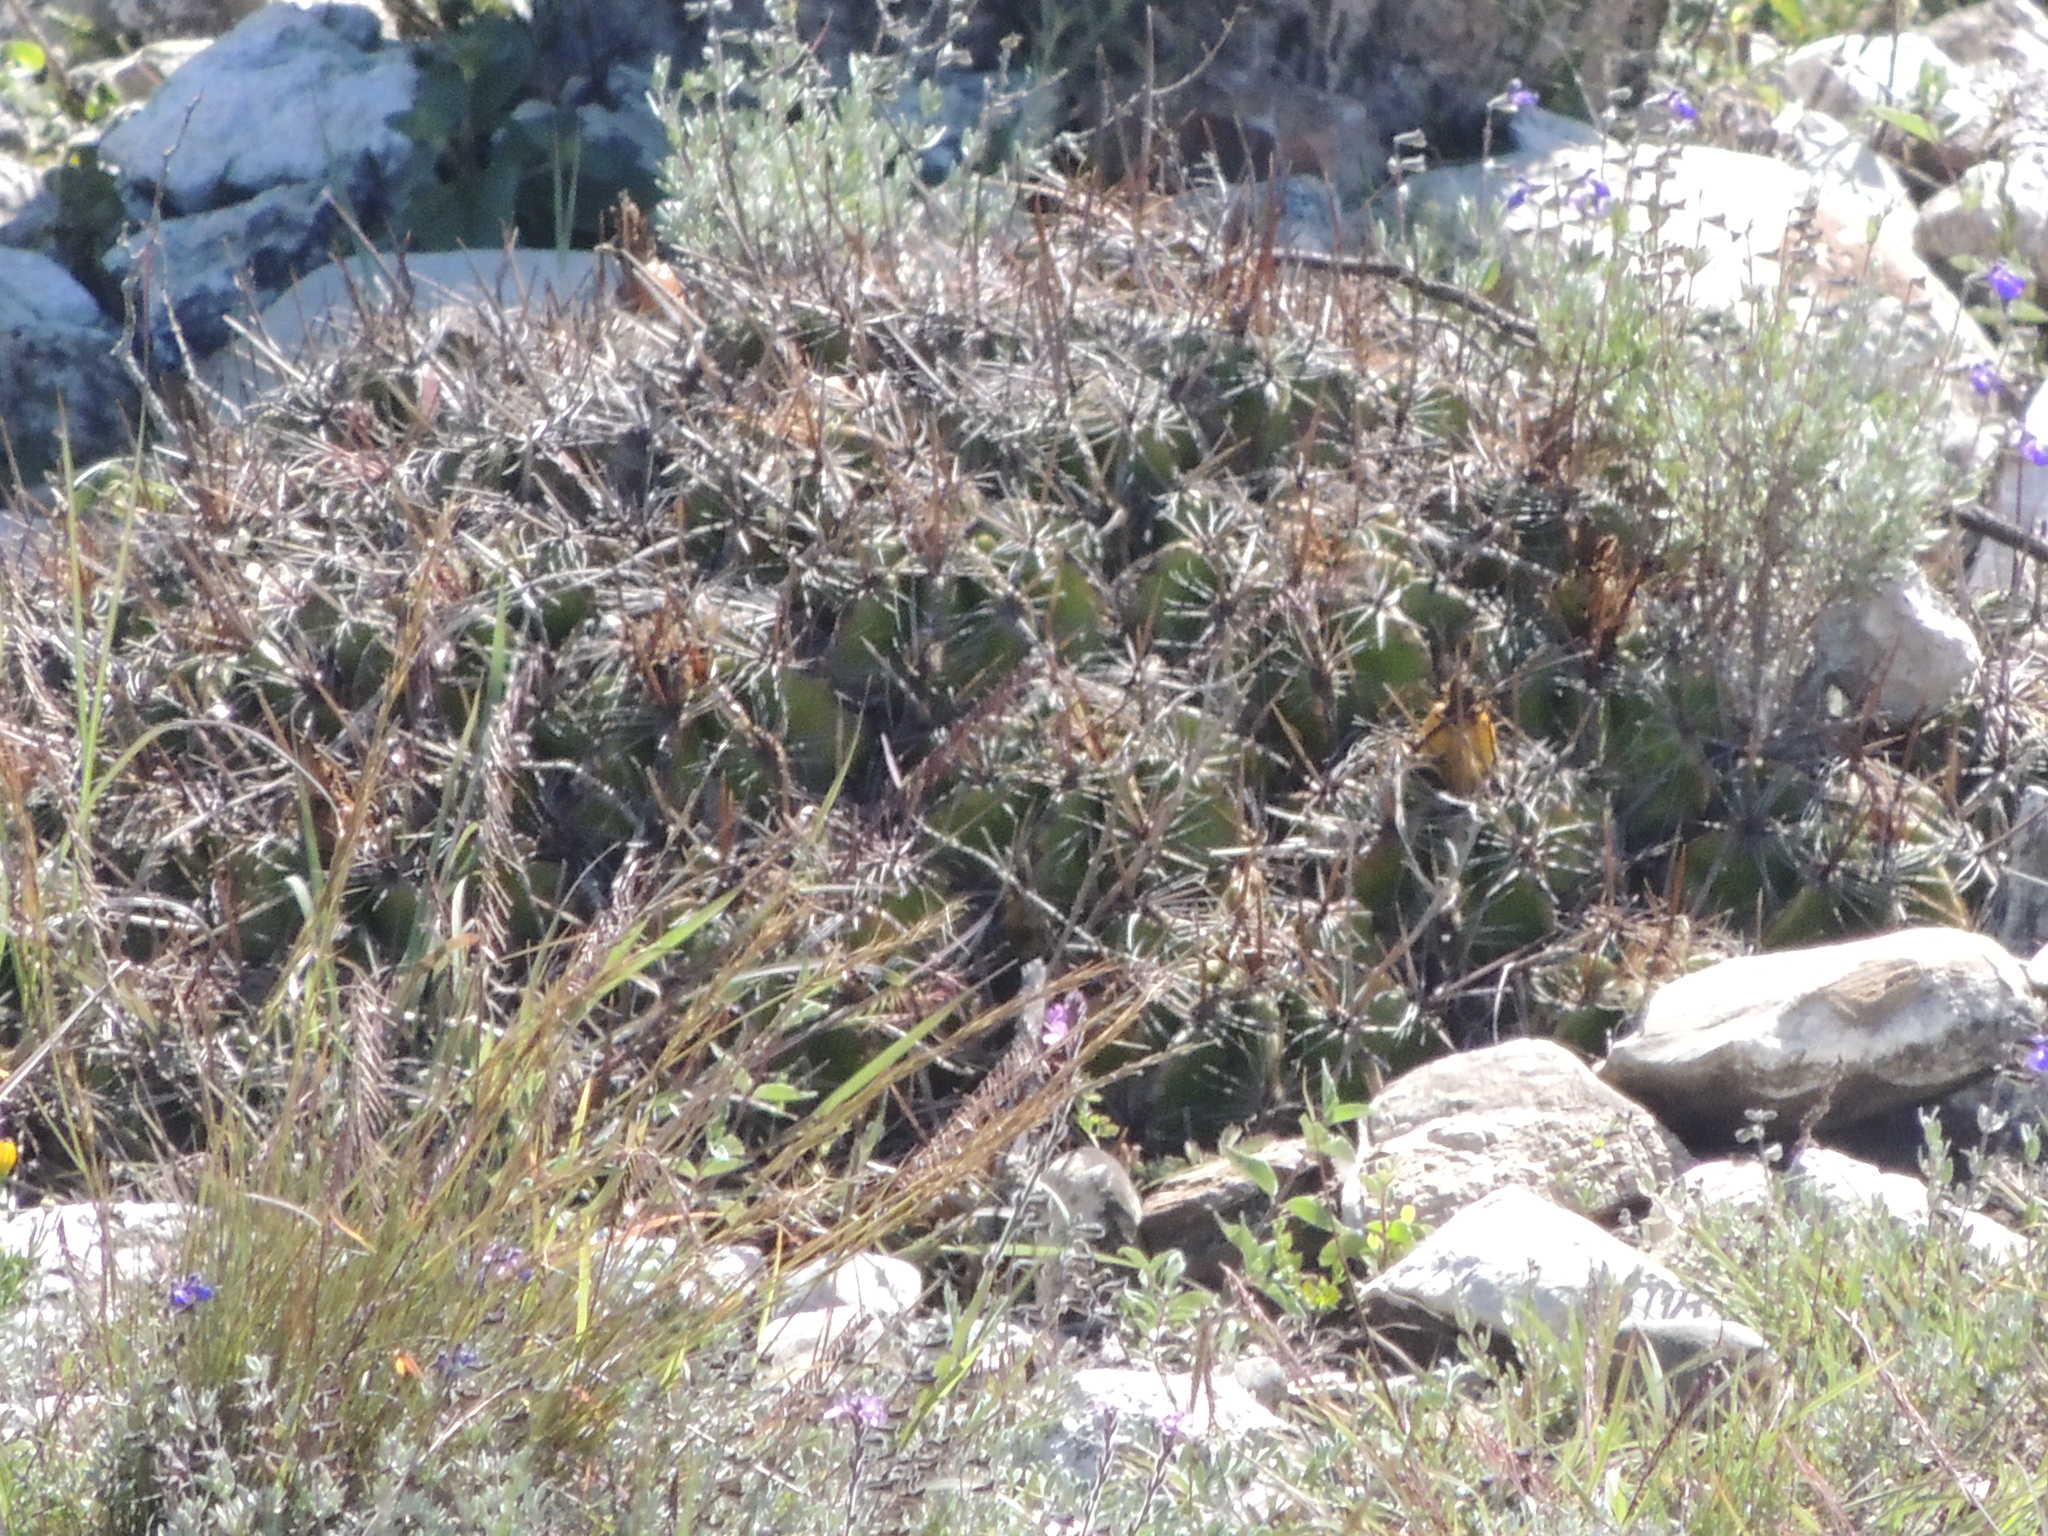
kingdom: Plantae
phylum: Tracheophyta
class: Magnoliopsida
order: Caryophyllales
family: Cactaceae
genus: Ferocactus
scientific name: Ferocactus robustus
